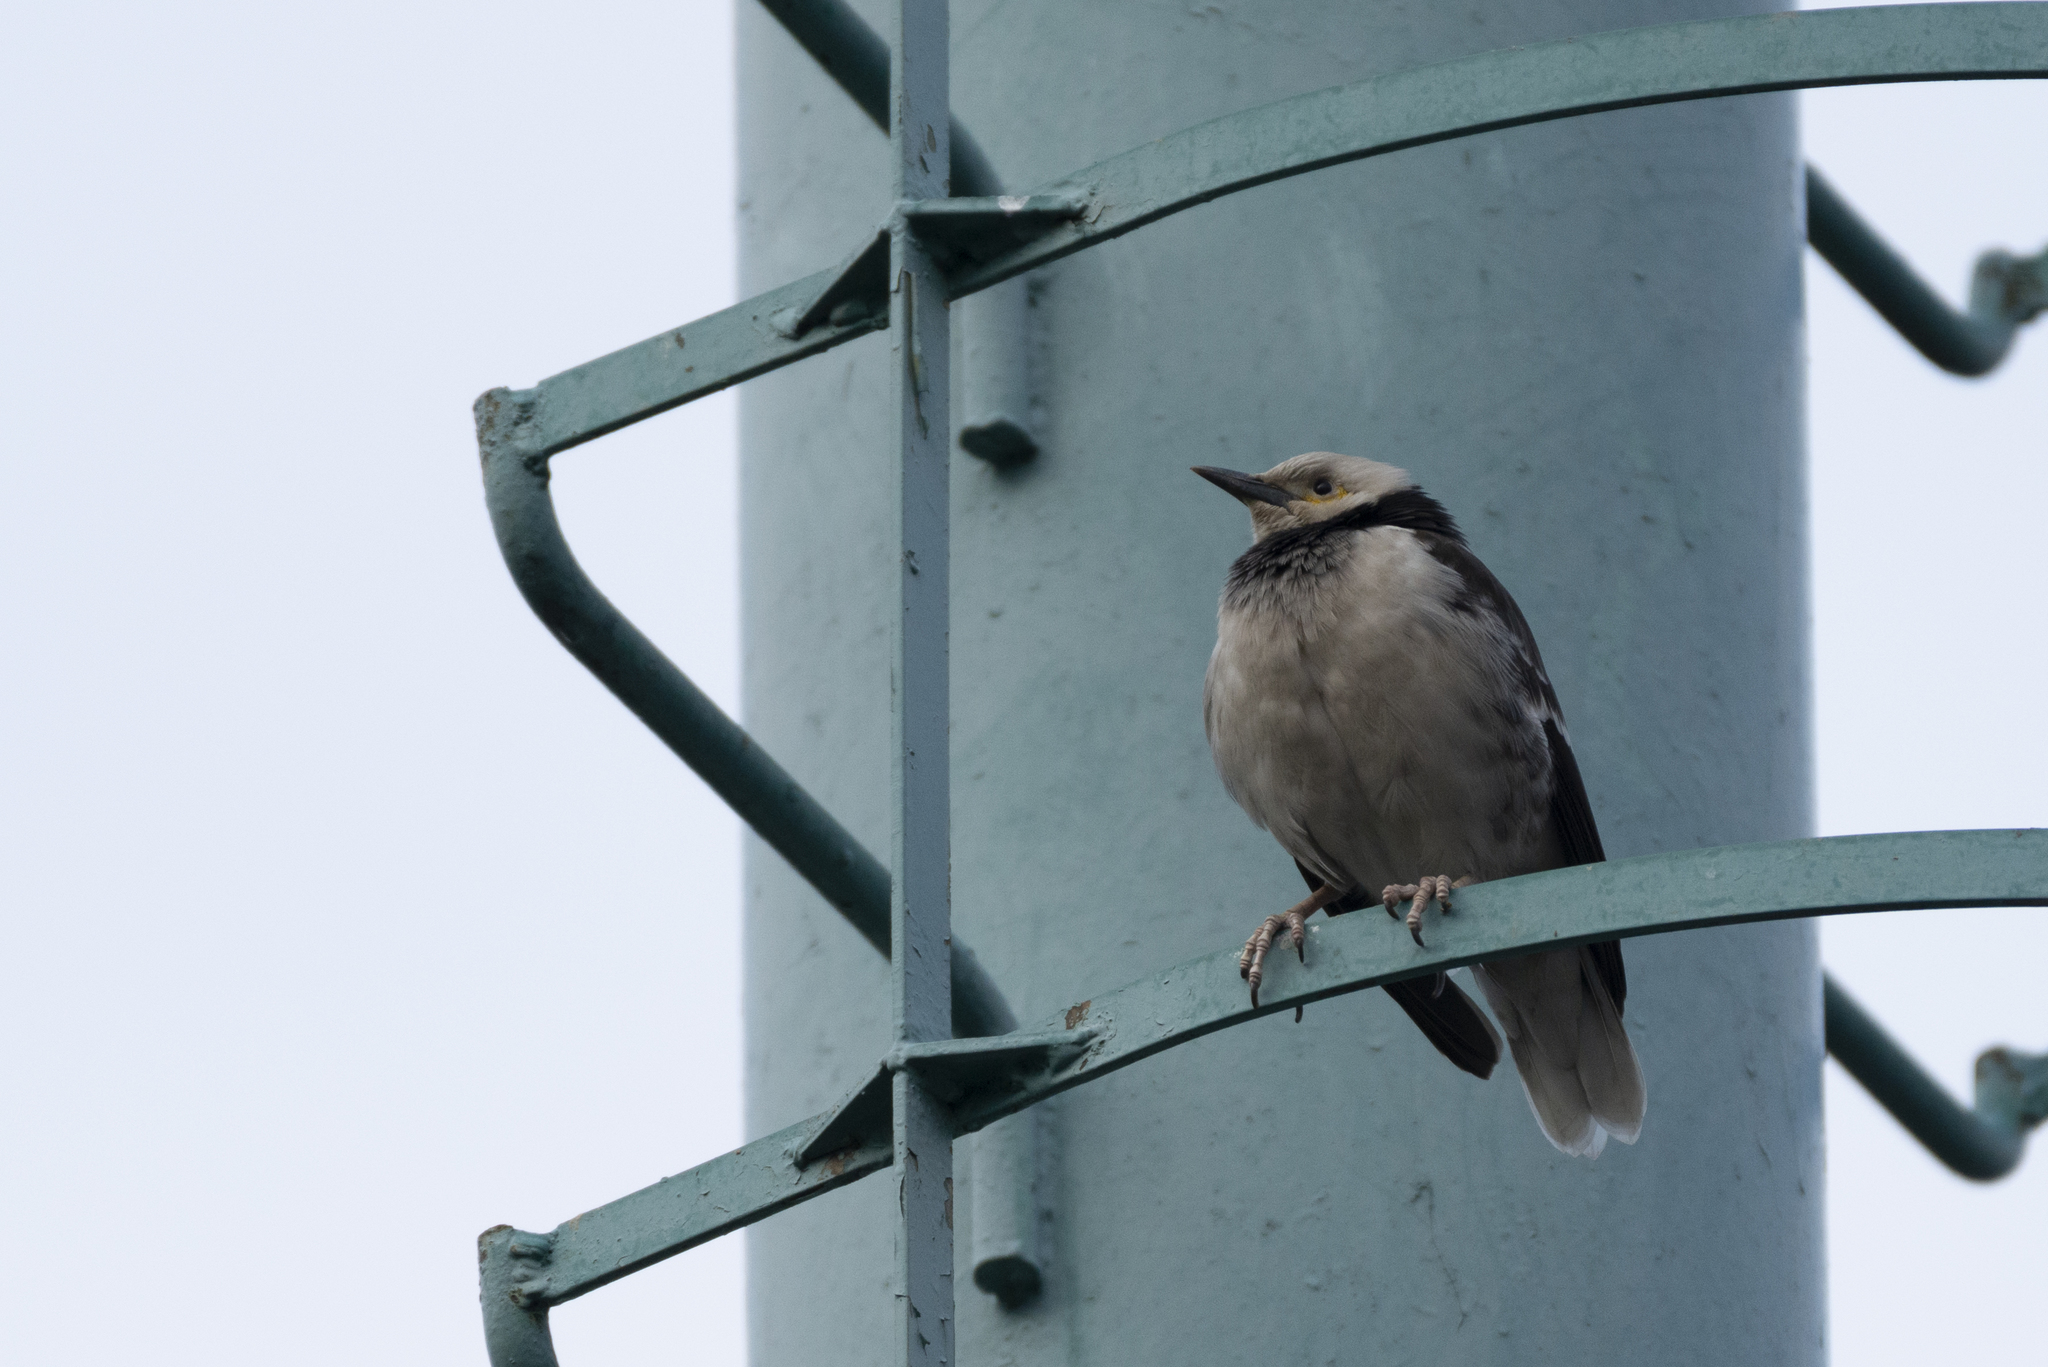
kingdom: Animalia
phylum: Chordata
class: Aves
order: Passeriformes
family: Sturnidae
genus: Gracupica
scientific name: Gracupica nigricollis
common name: Black-collared starling
